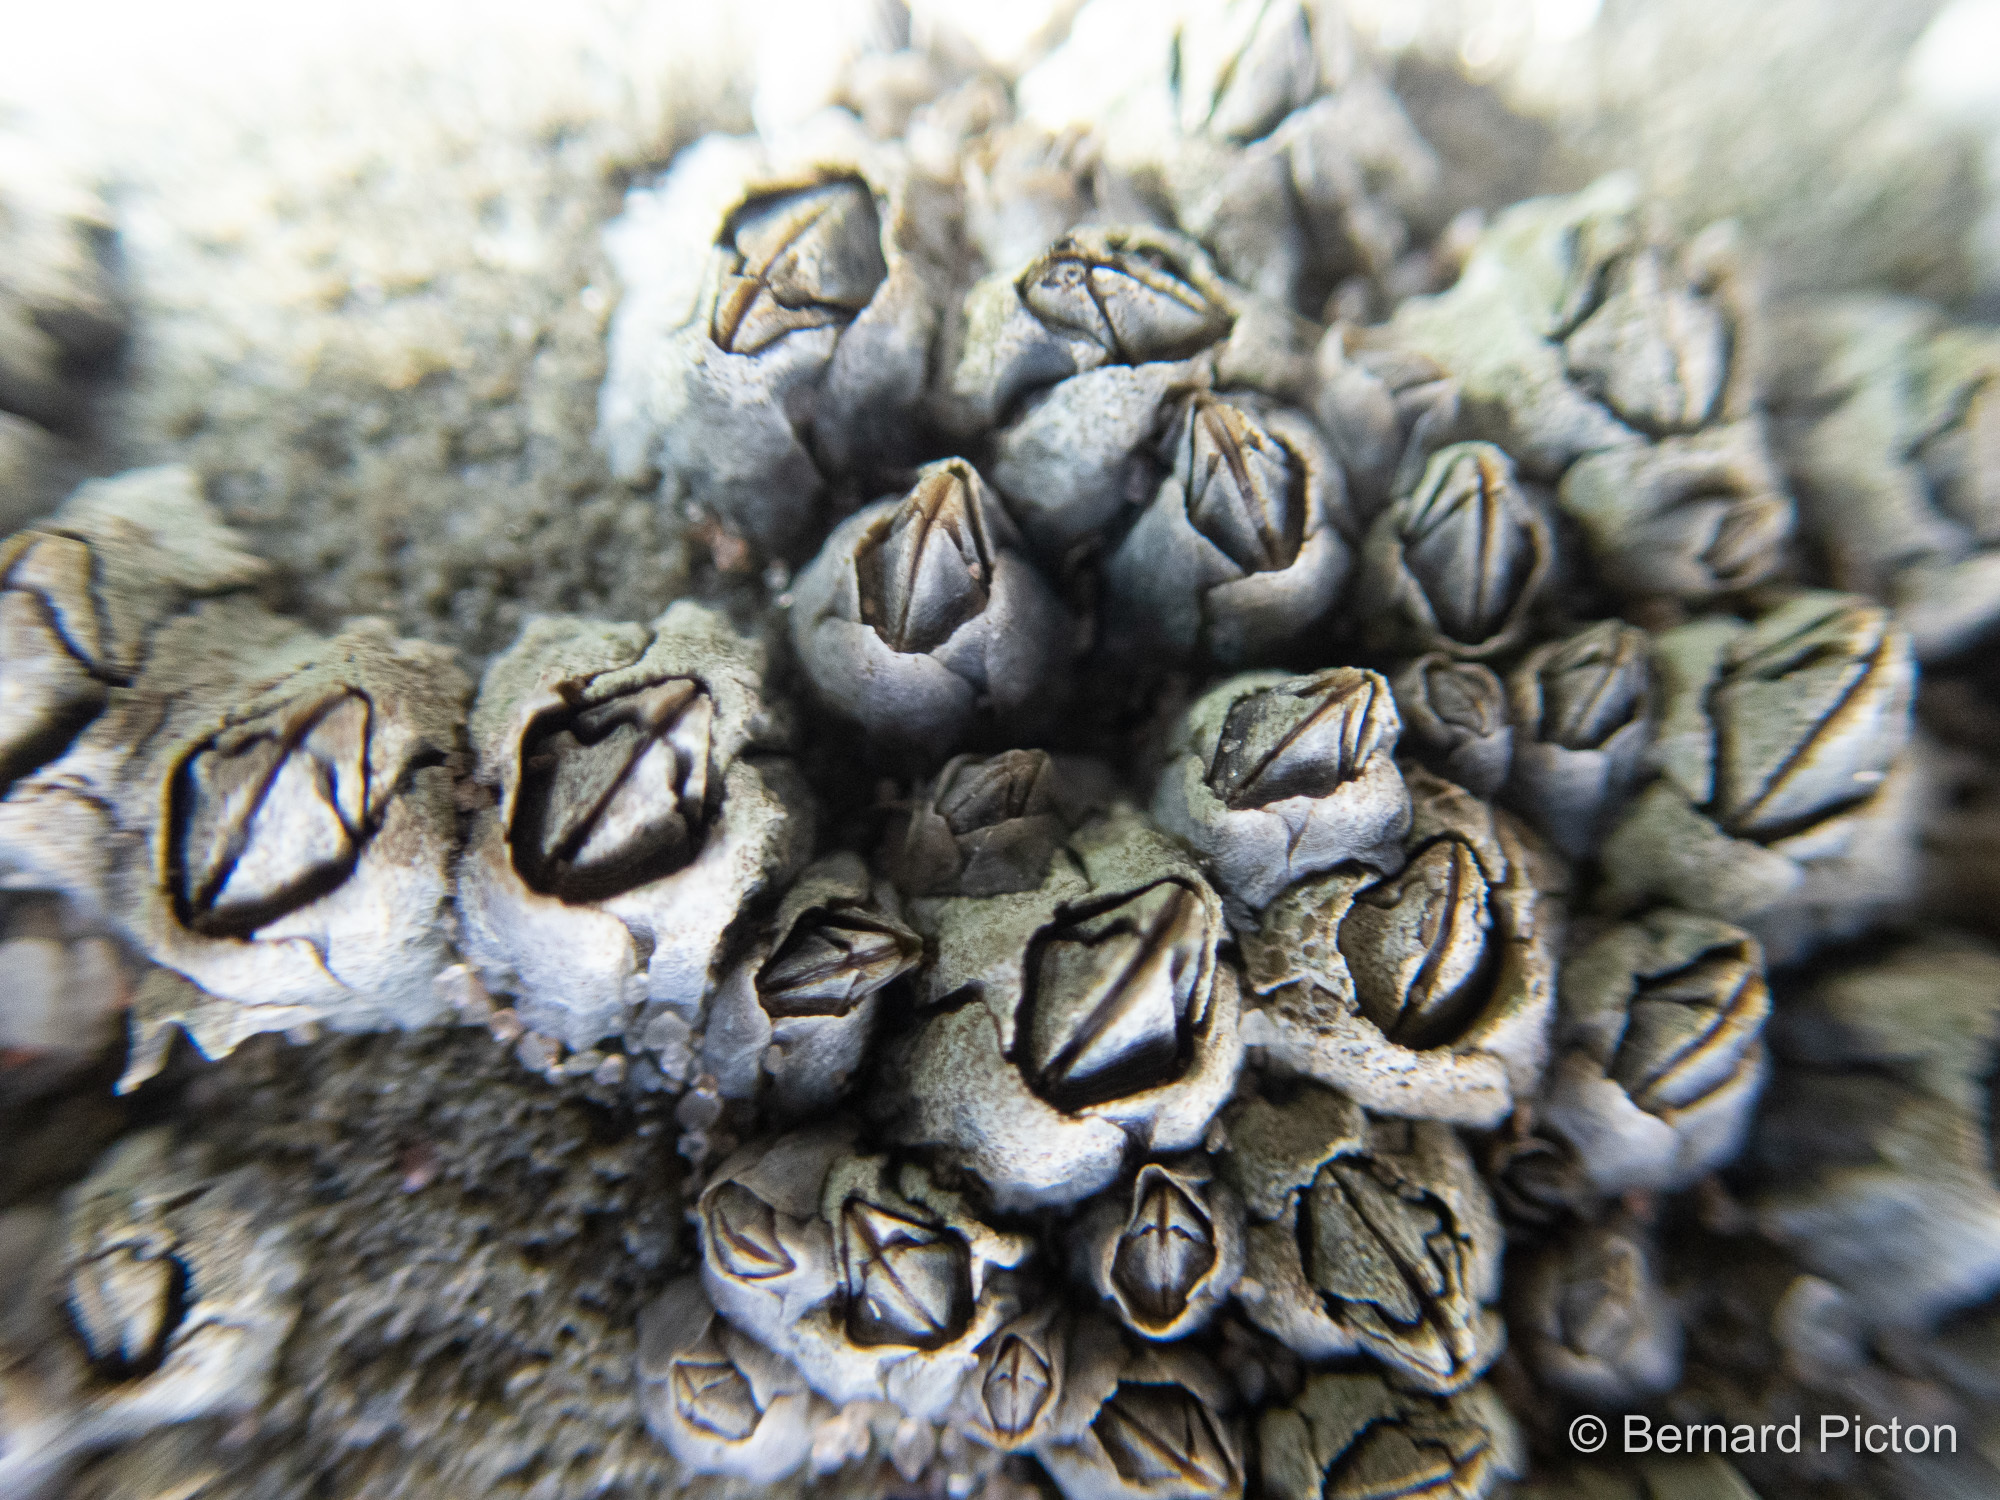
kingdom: Animalia
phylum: Arthropoda
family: Elminiidae
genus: Austrominius
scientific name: Austrominius modestus
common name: Australasian barnacle
